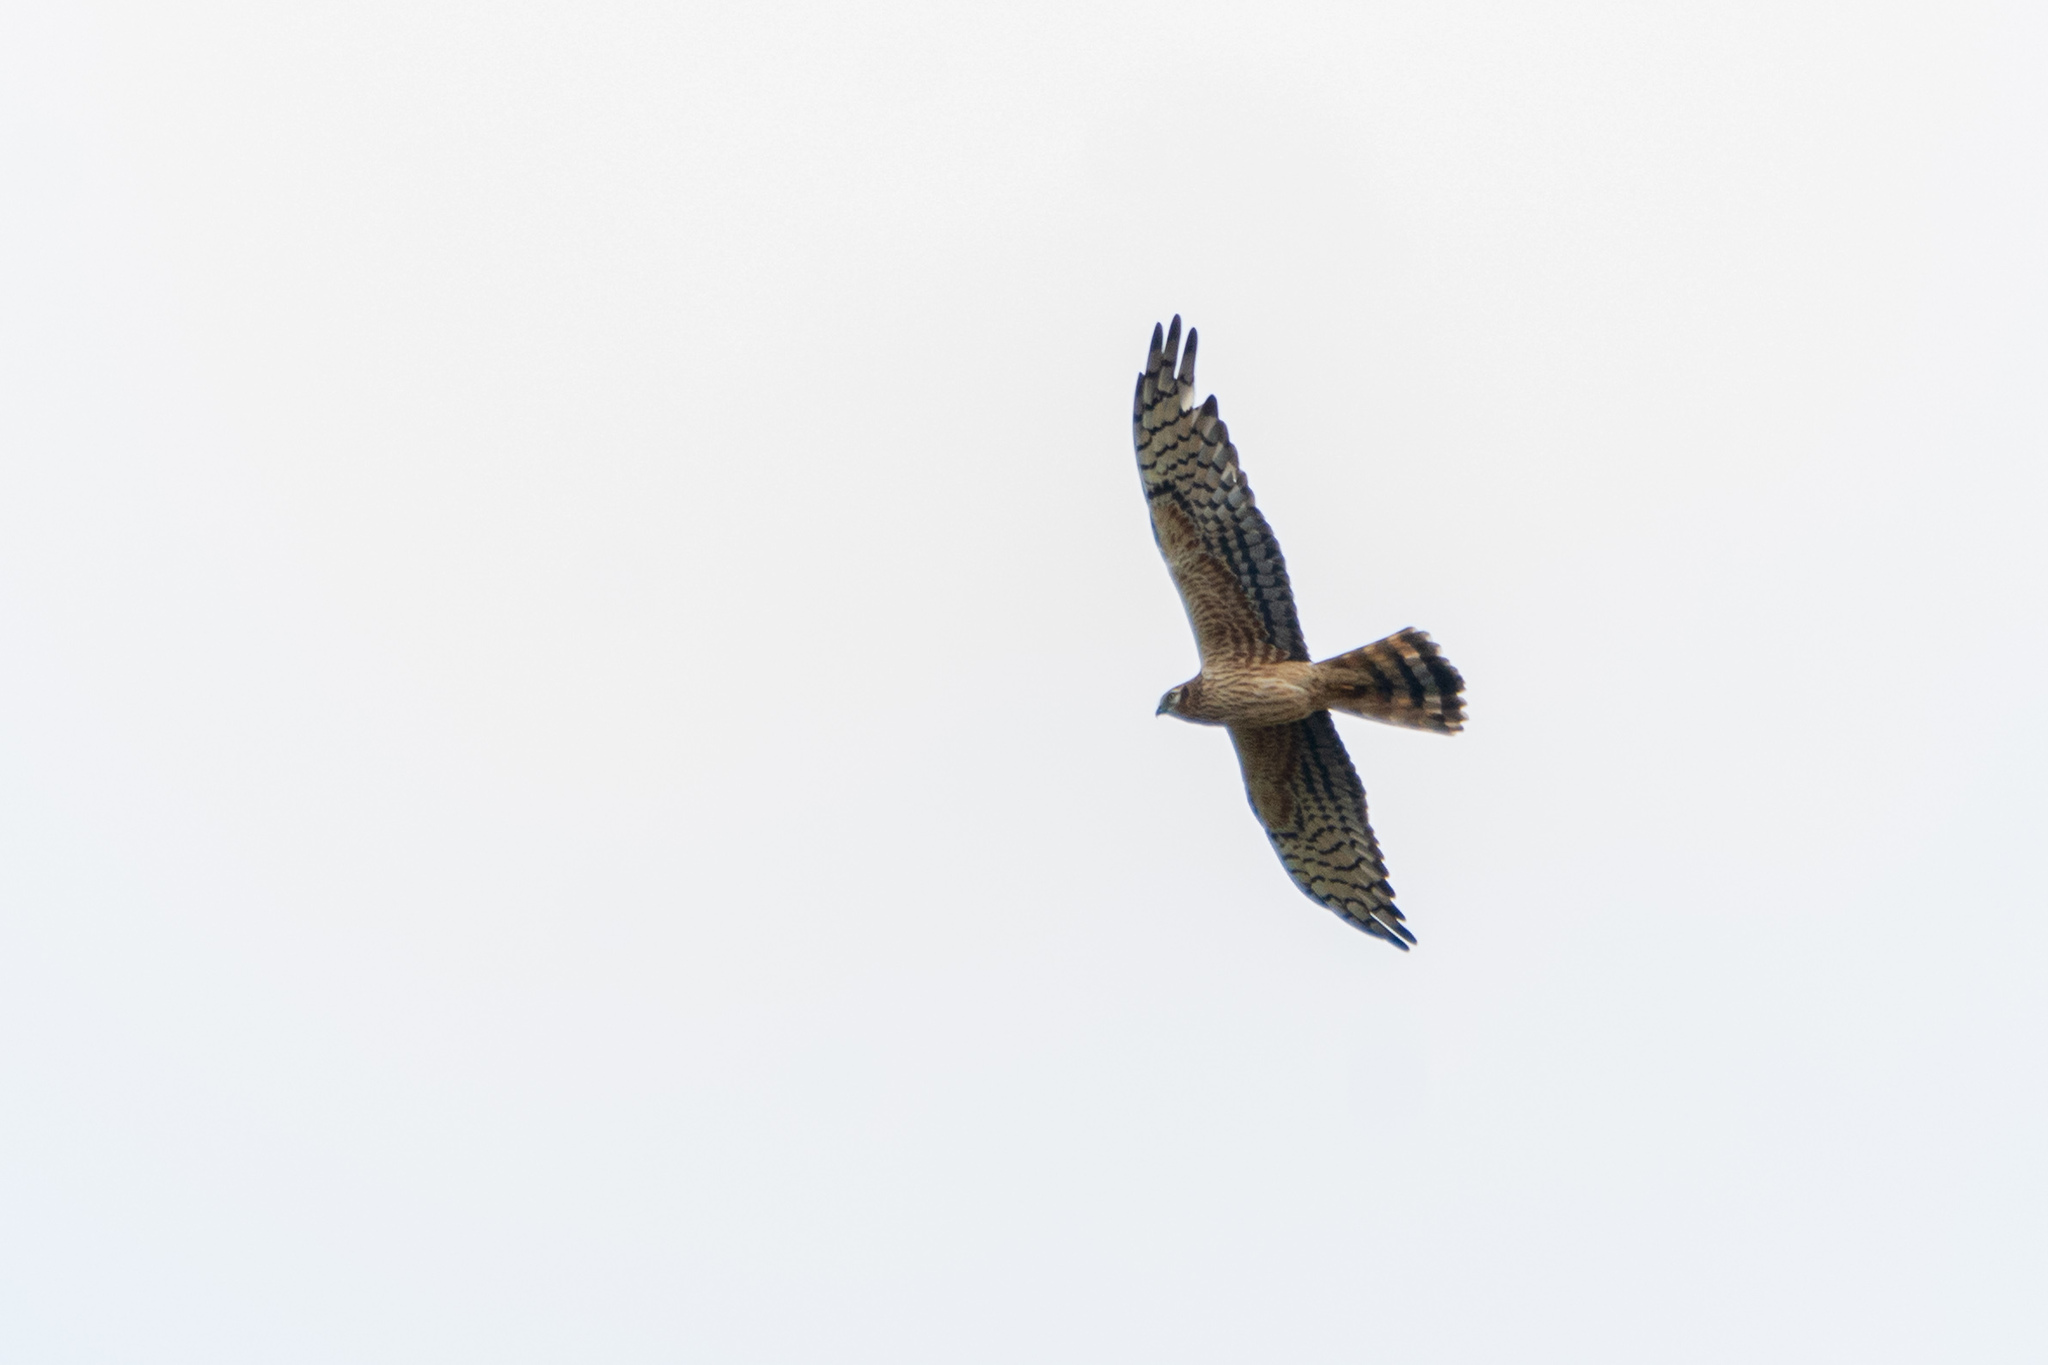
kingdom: Animalia
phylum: Chordata
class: Aves
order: Accipitriformes
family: Accipitridae
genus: Circus
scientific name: Circus pygargus
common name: Montagu's harrier
